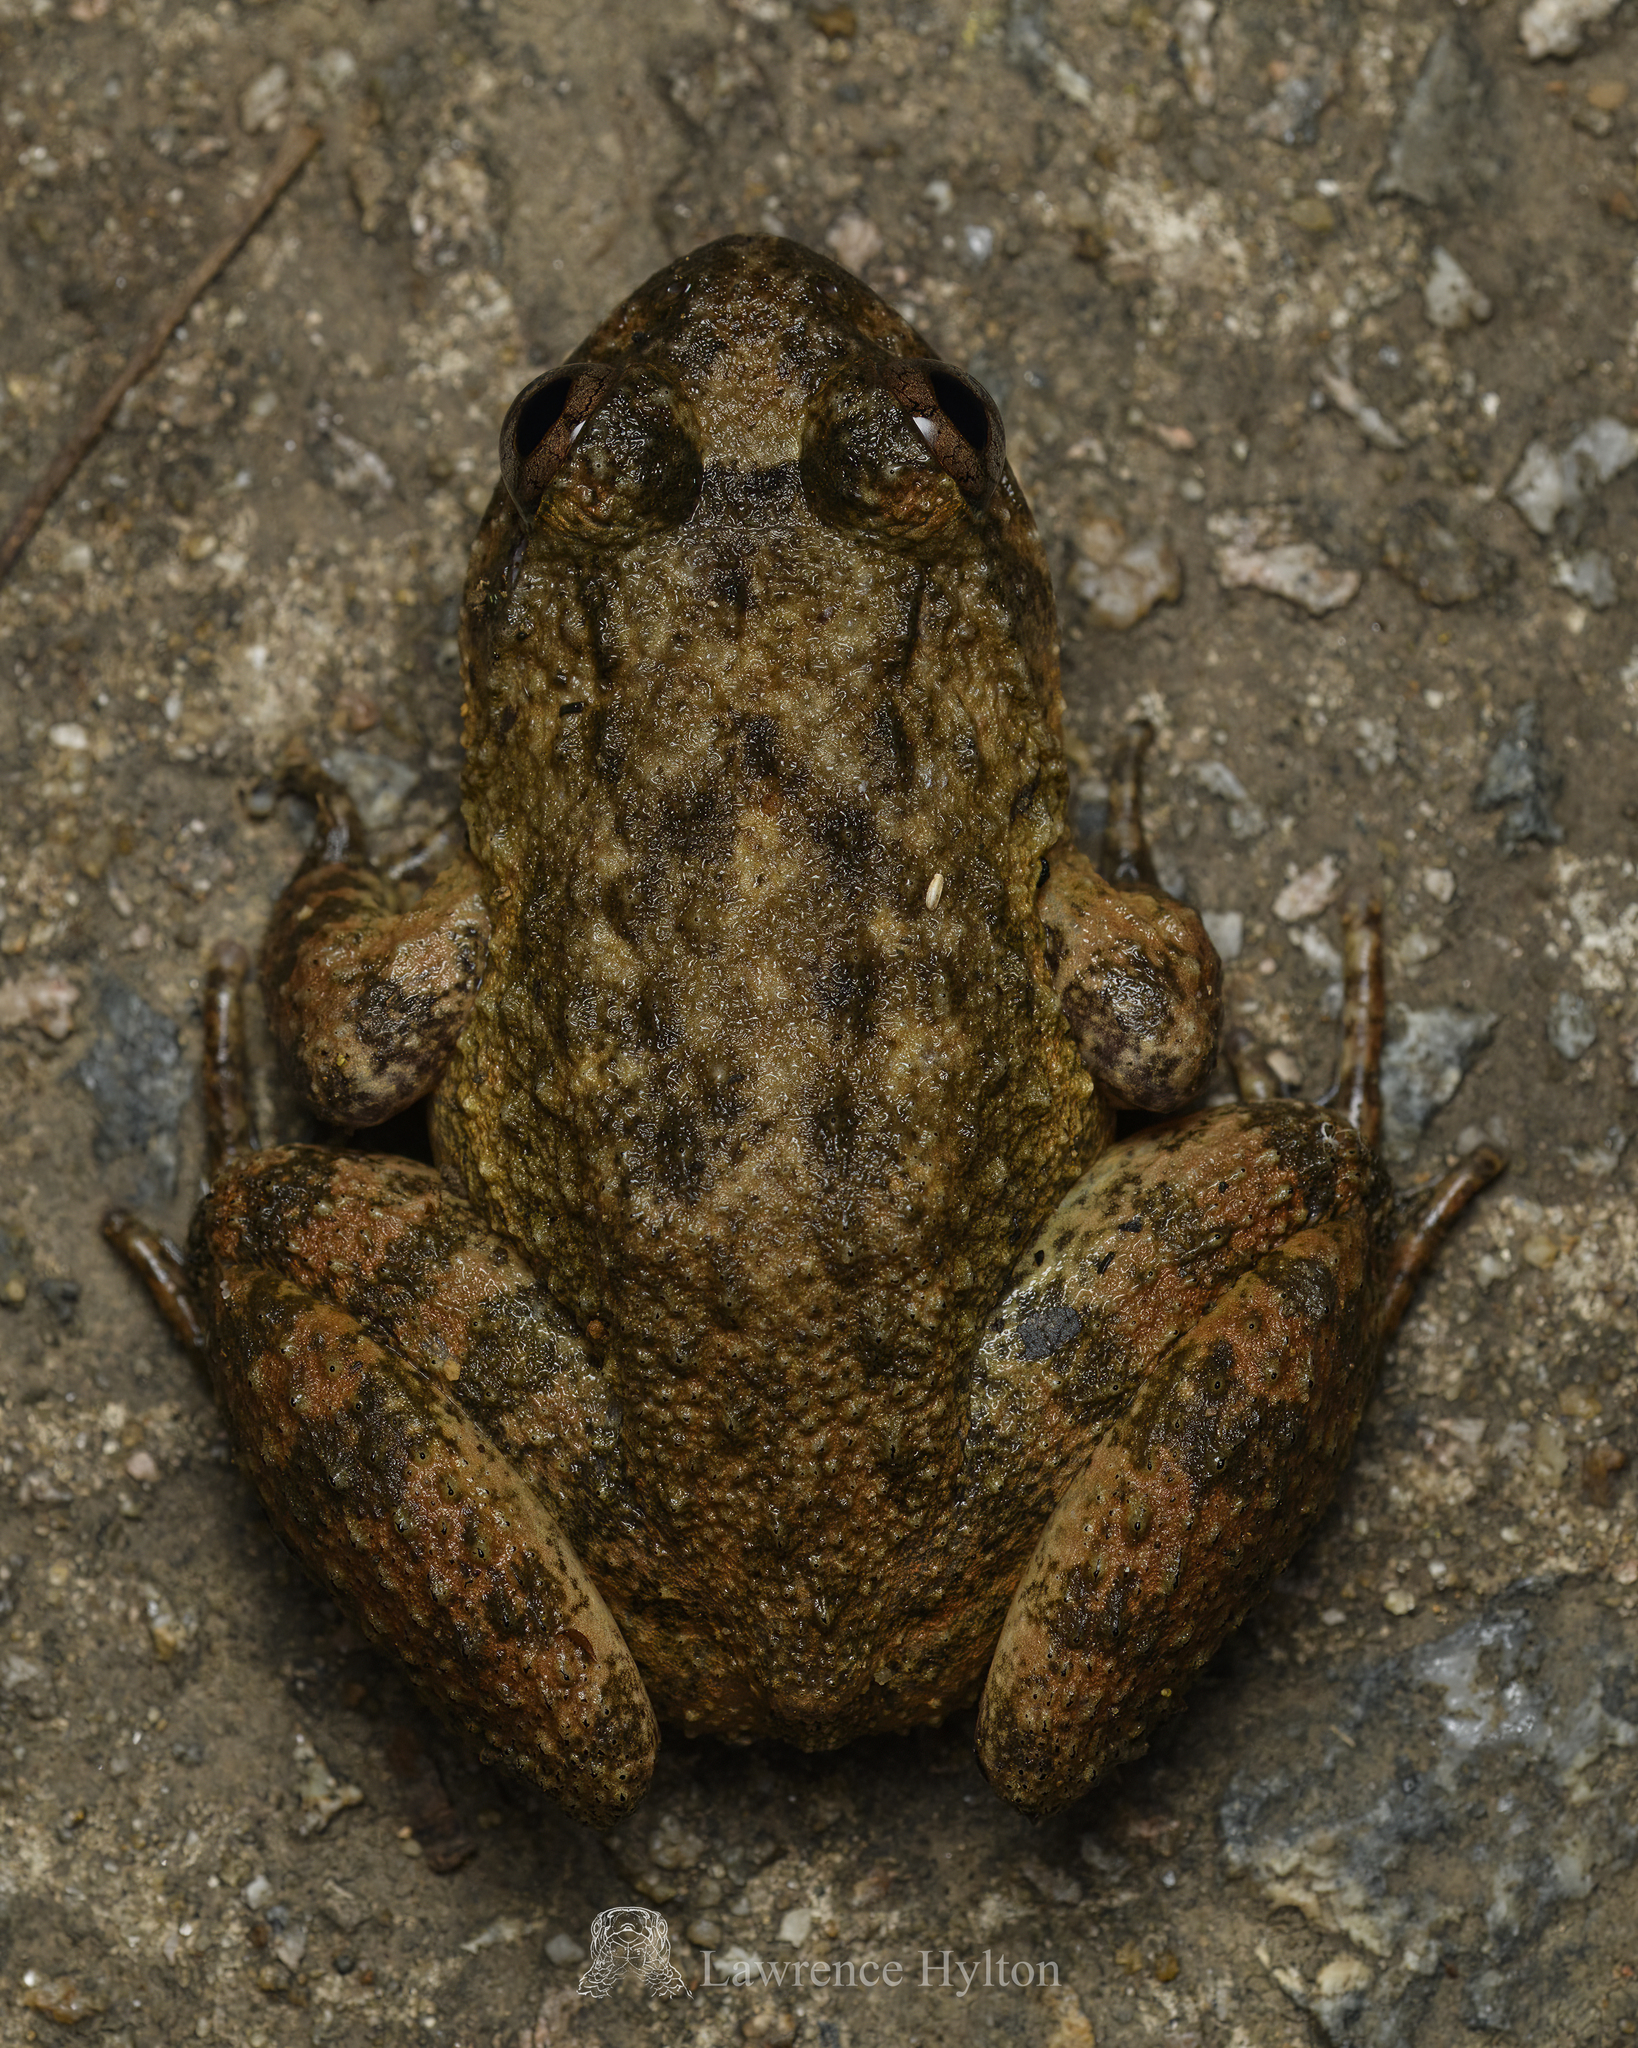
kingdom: Animalia
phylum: Chordata
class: Amphibia
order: Anura
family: Dicroglossidae
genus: Quasipaa
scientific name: Quasipaa exilispinosa
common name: Hong kong paa frog
